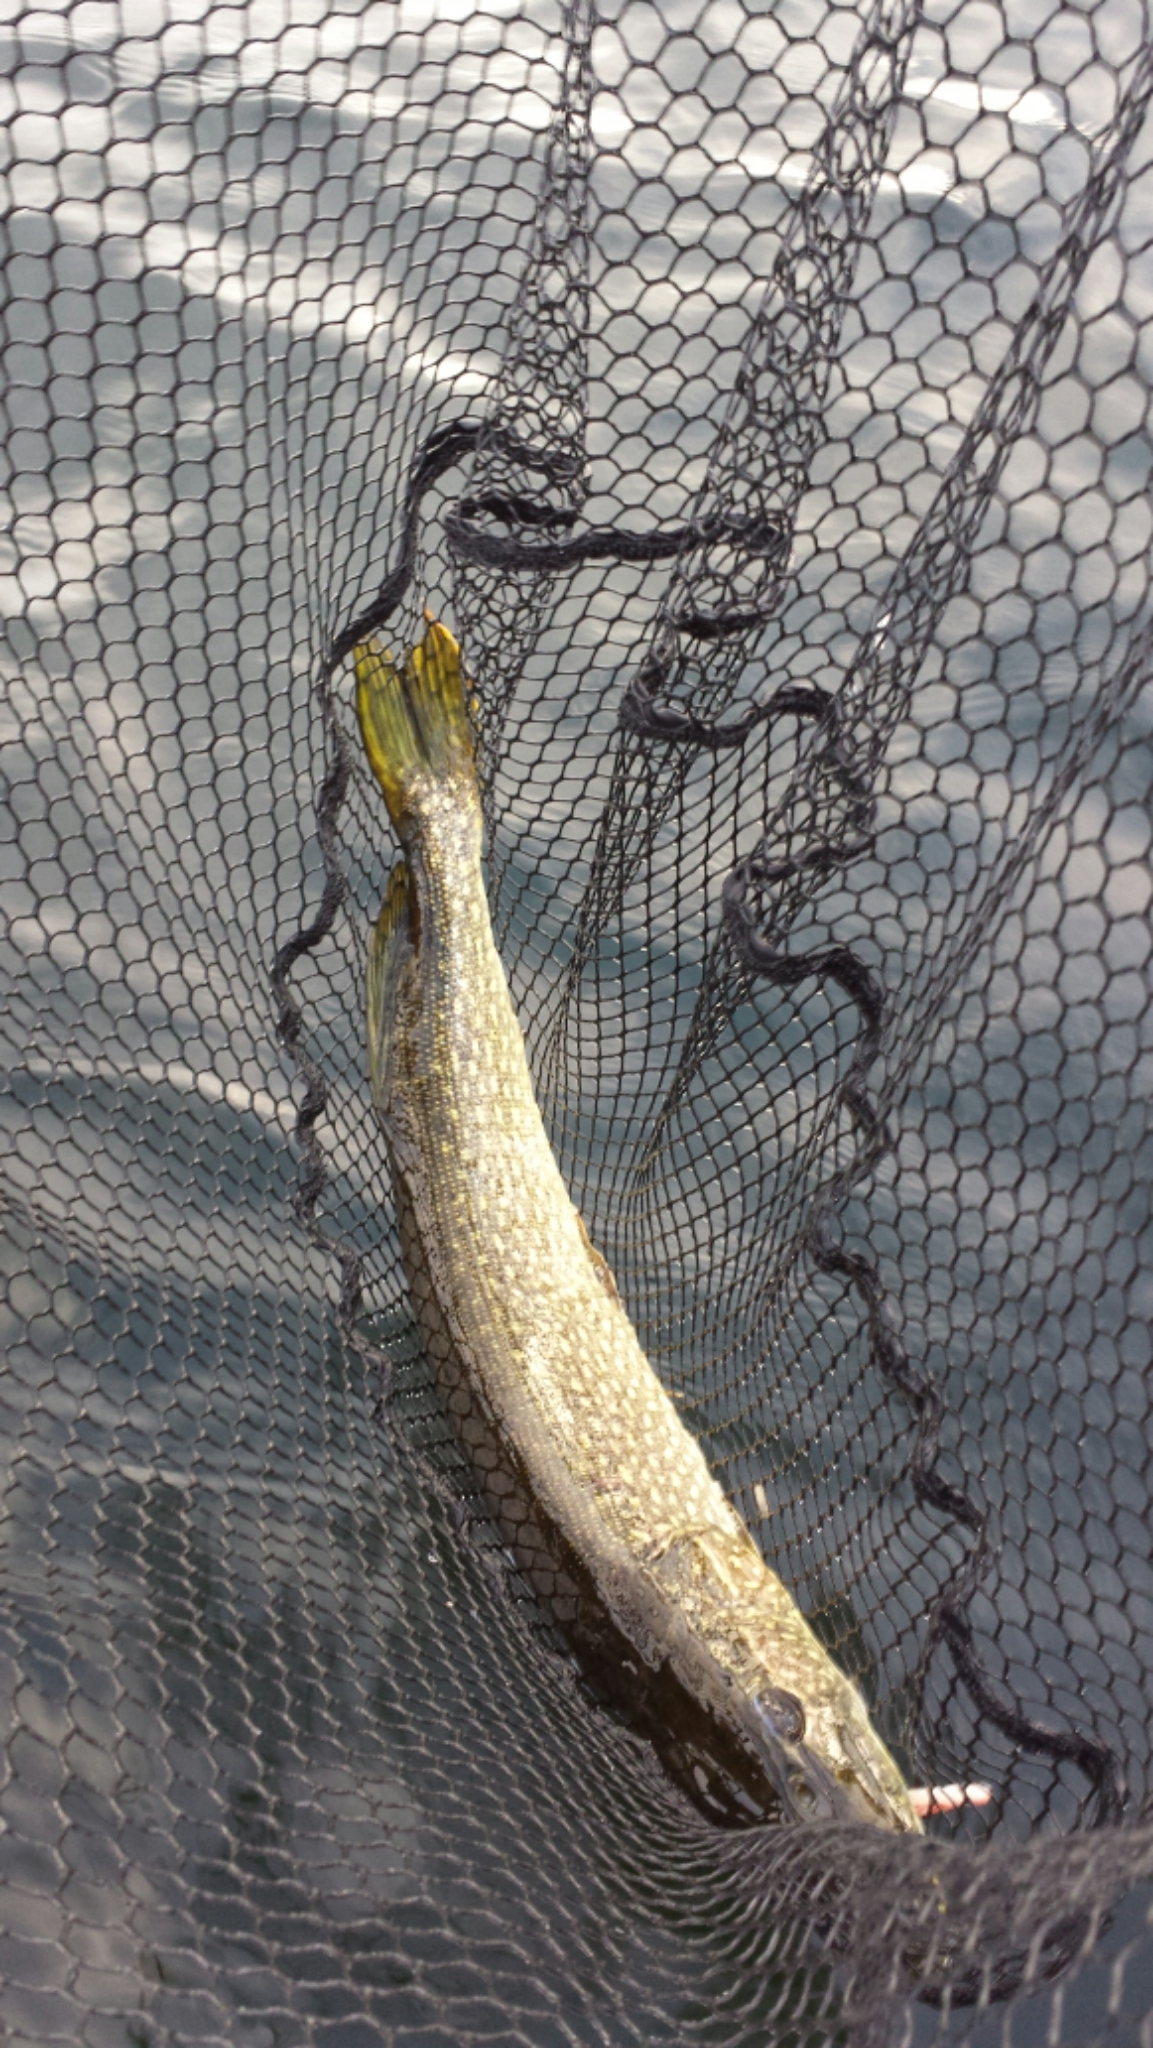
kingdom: Animalia
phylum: Chordata
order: Esociformes
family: Esocidae
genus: Esox
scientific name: Esox lucius
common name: Northern pike
